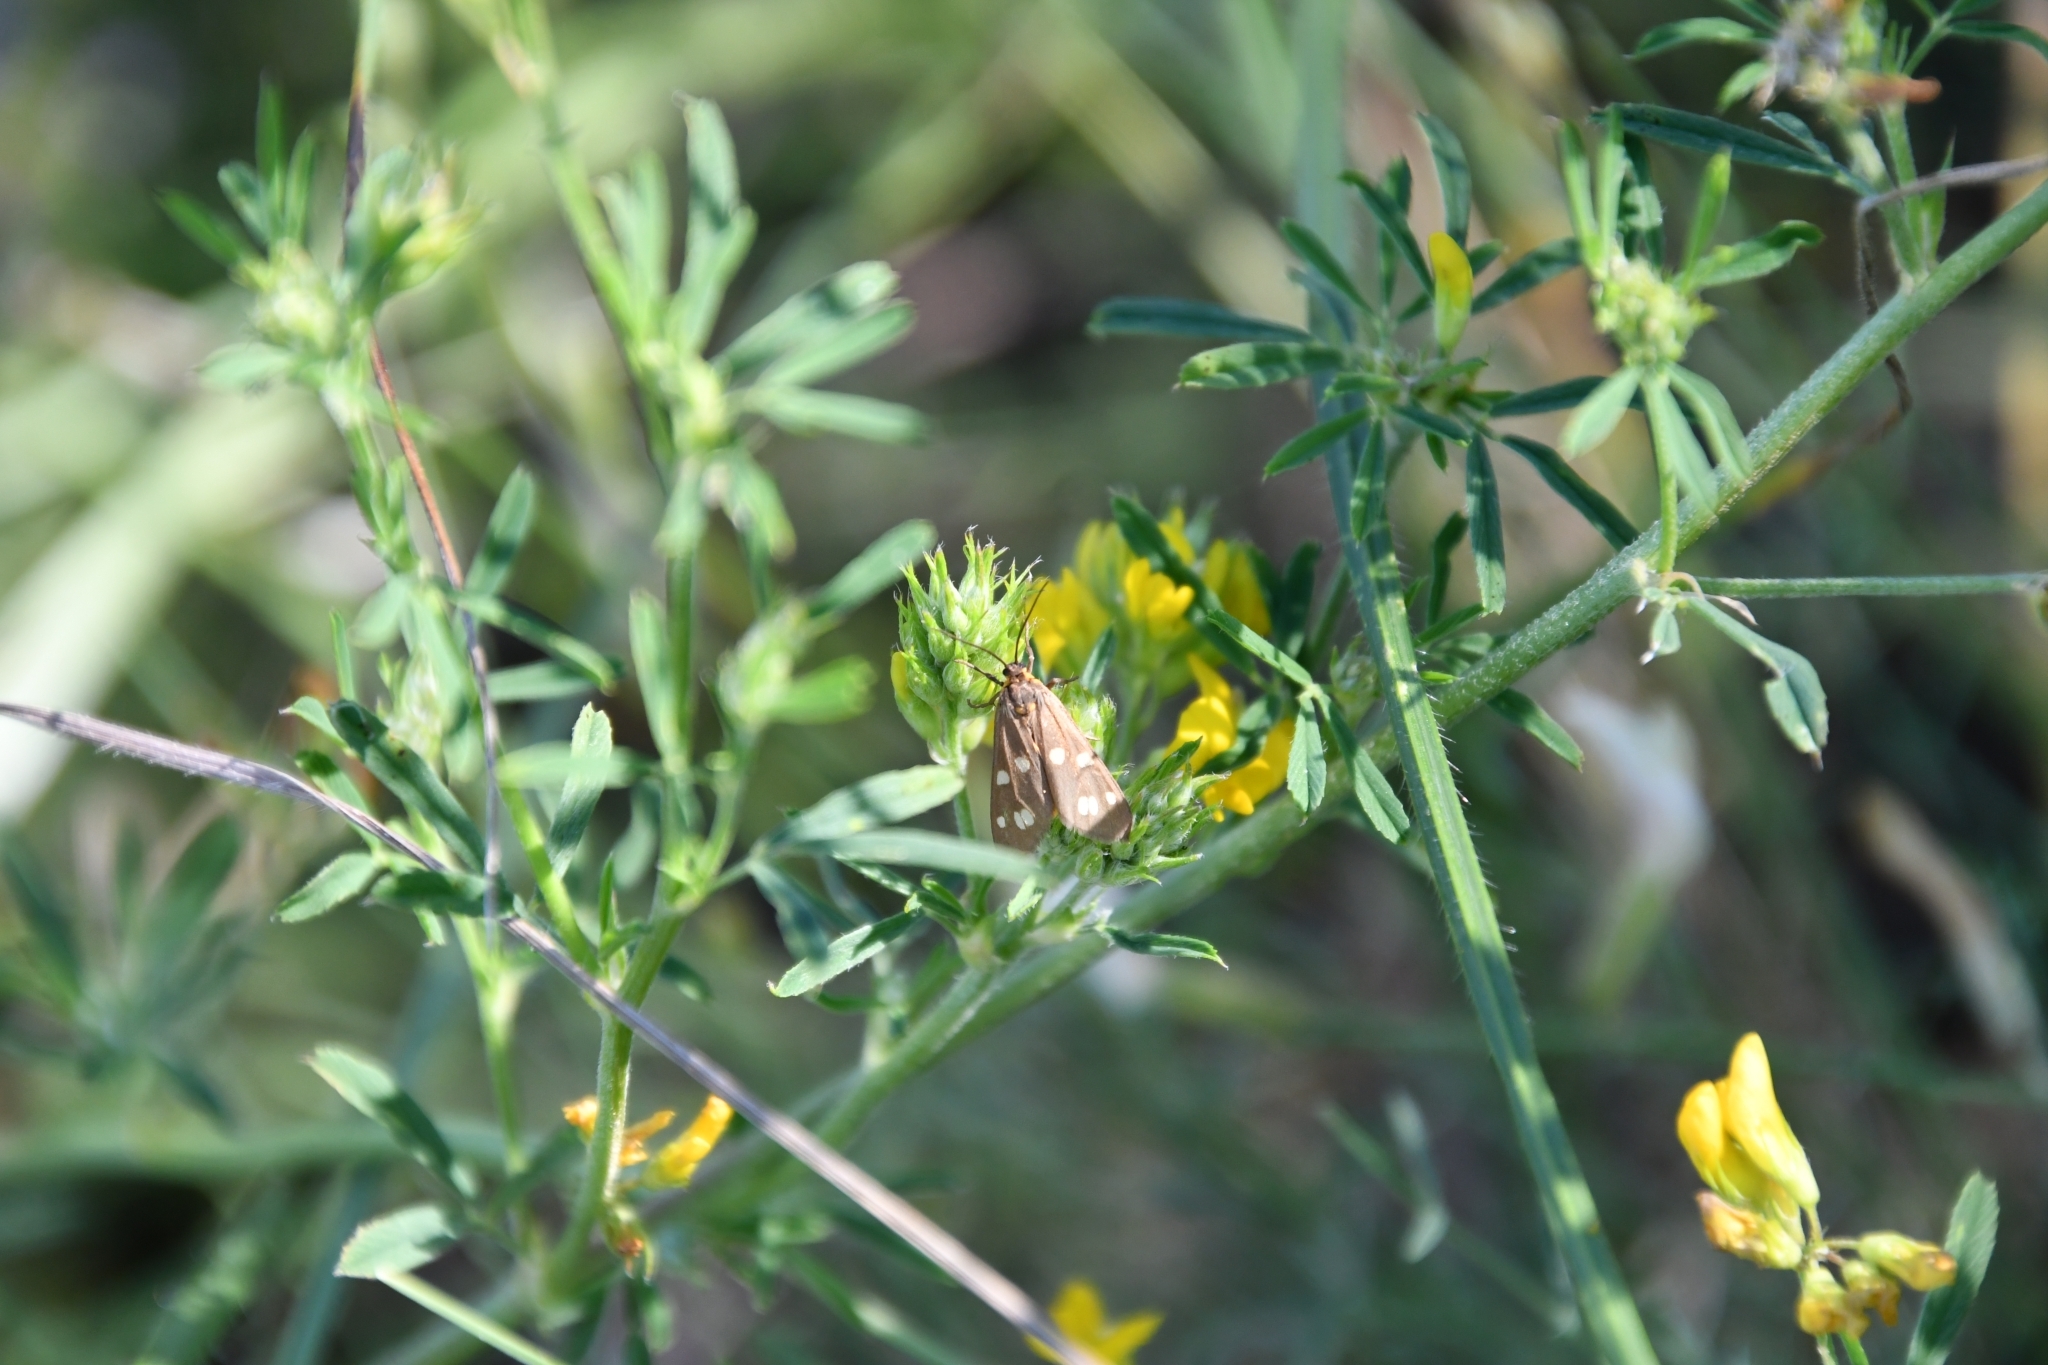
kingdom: Animalia
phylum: Arthropoda
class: Insecta
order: Lepidoptera
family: Erebidae
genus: Dysauxes
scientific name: Dysauxes punctata
